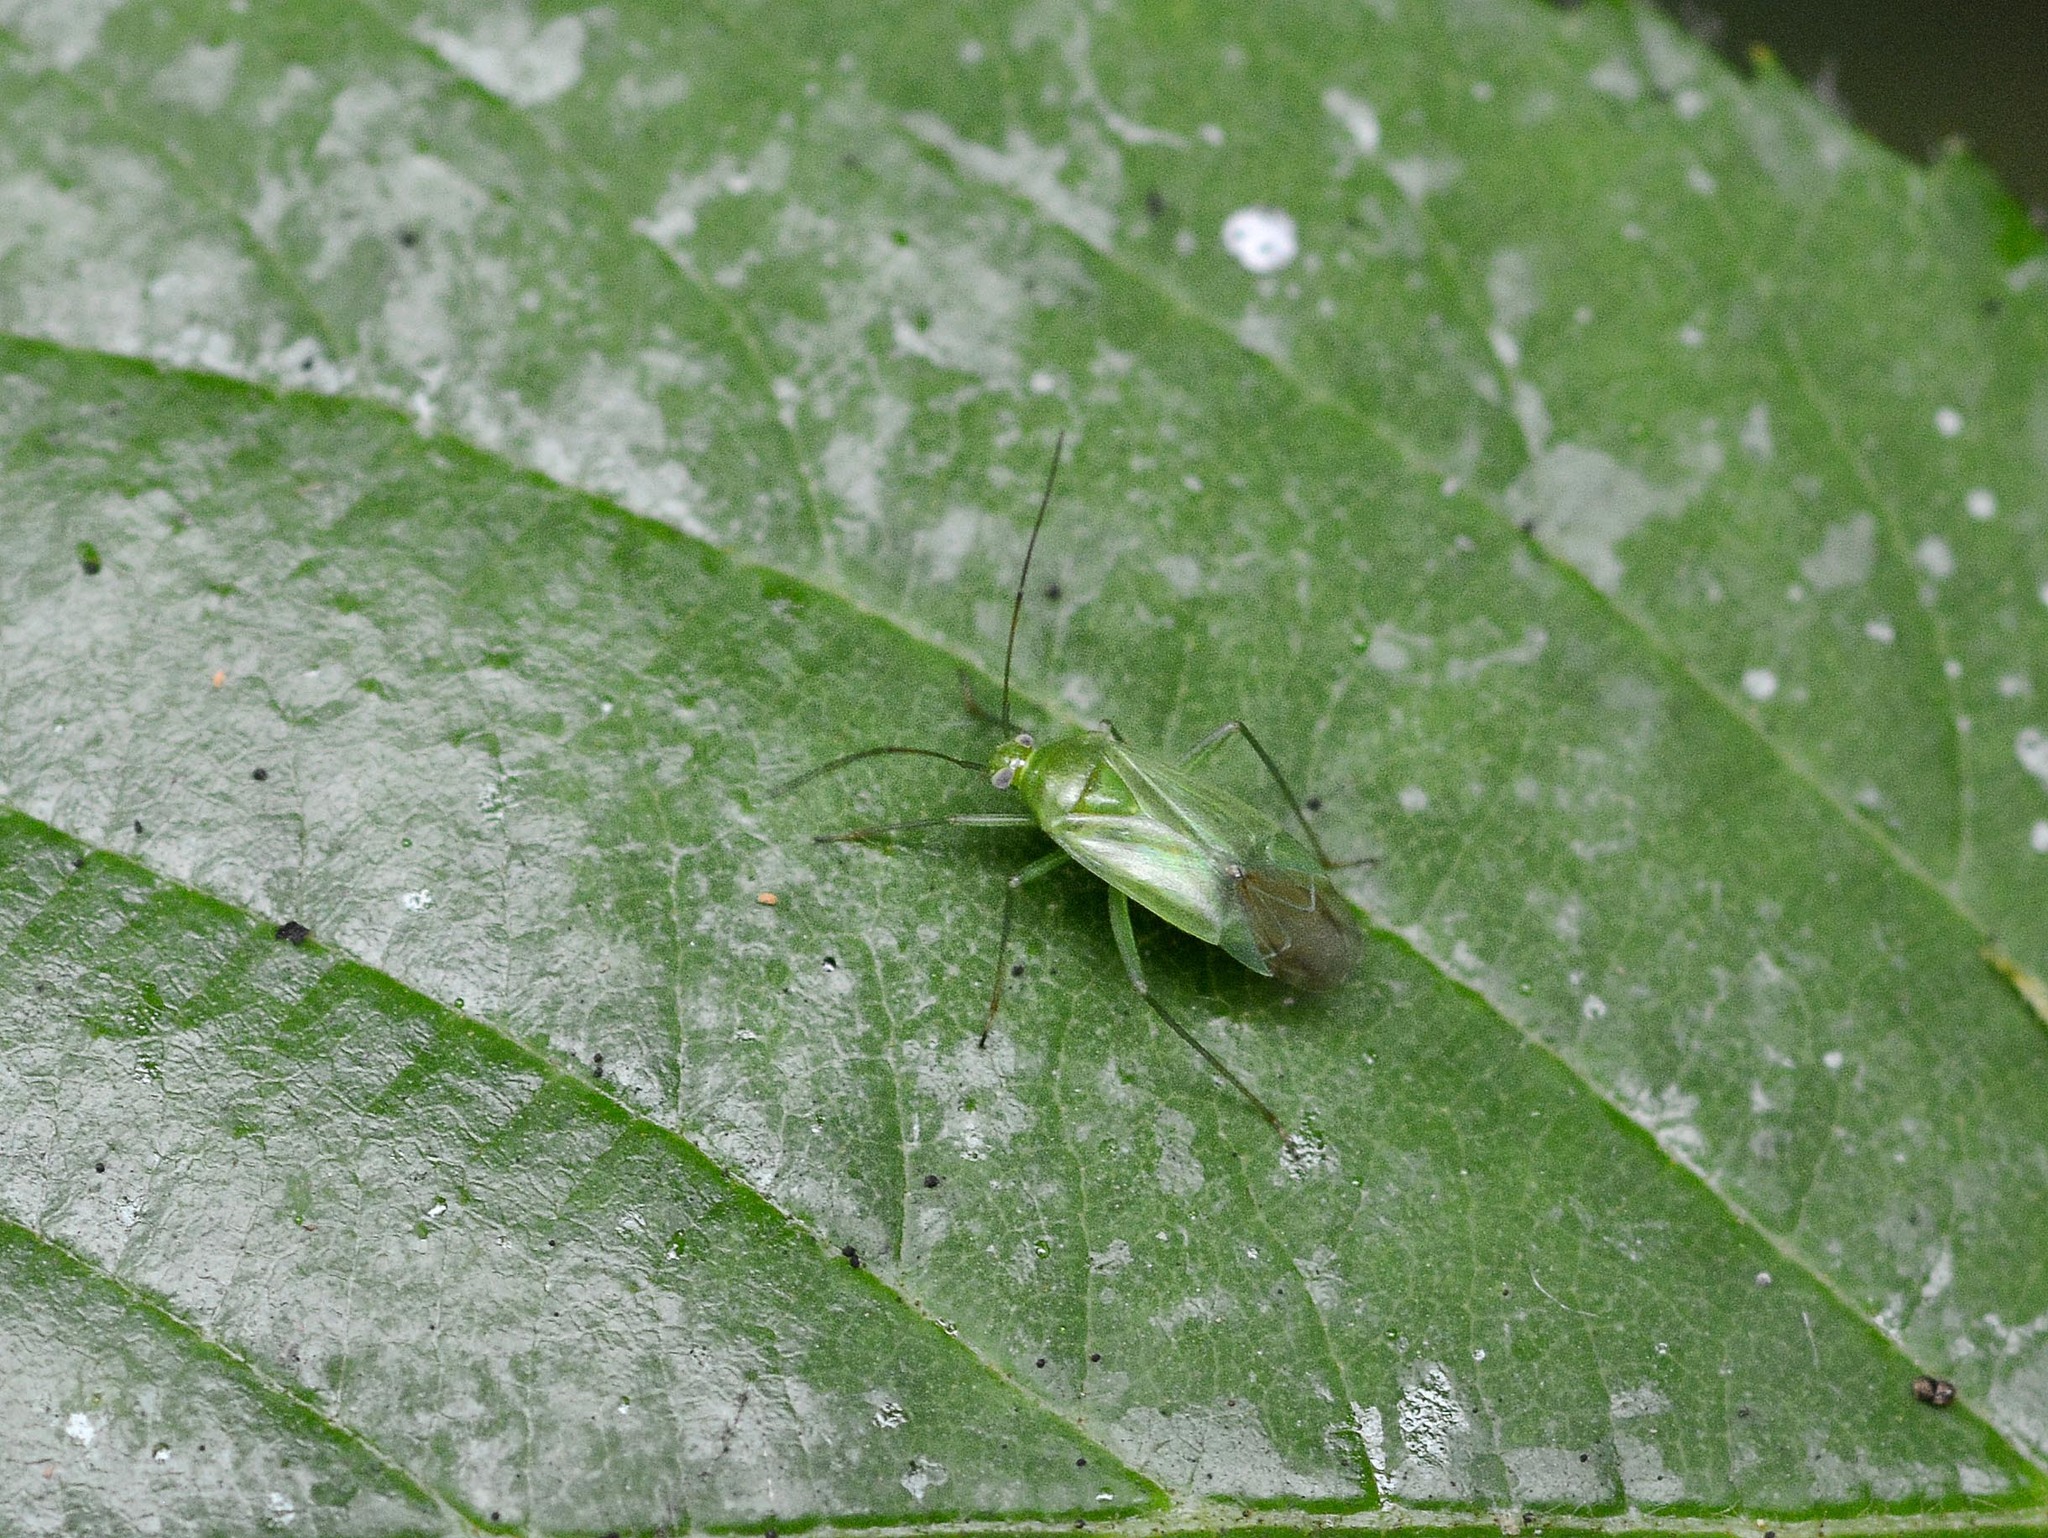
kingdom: Animalia
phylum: Arthropoda
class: Insecta
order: Hemiptera
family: Miridae
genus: Lygocoris
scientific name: Lygocoris pabulinus
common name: Common green capsid
